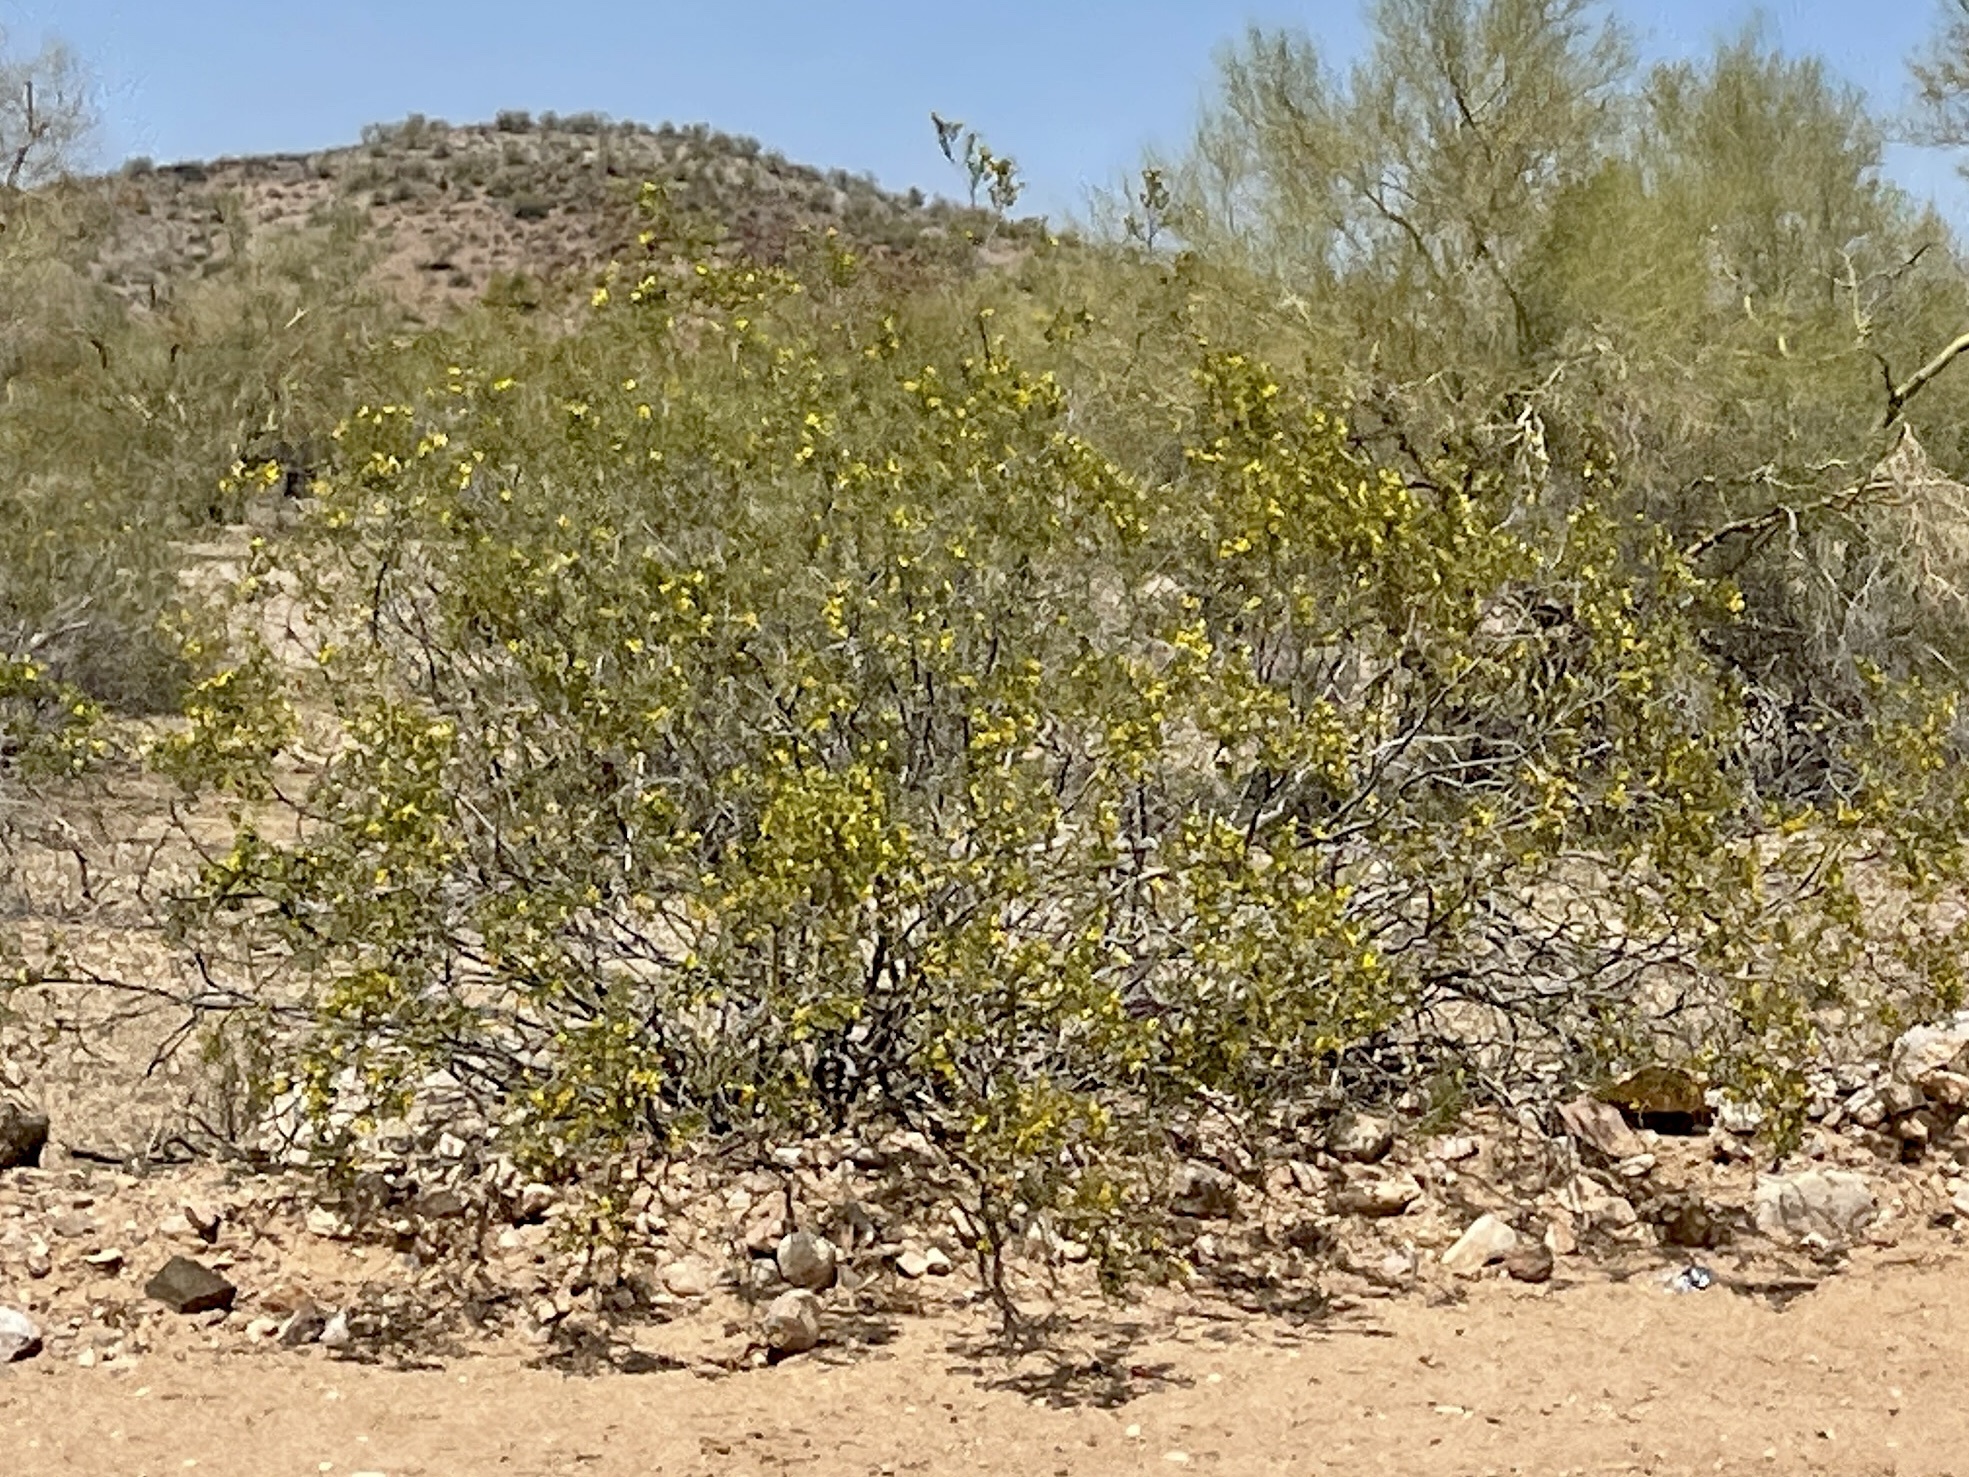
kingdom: Plantae
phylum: Tracheophyta
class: Magnoliopsida
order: Zygophyllales
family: Zygophyllaceae
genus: Larrea
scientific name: Larrea tridentata
